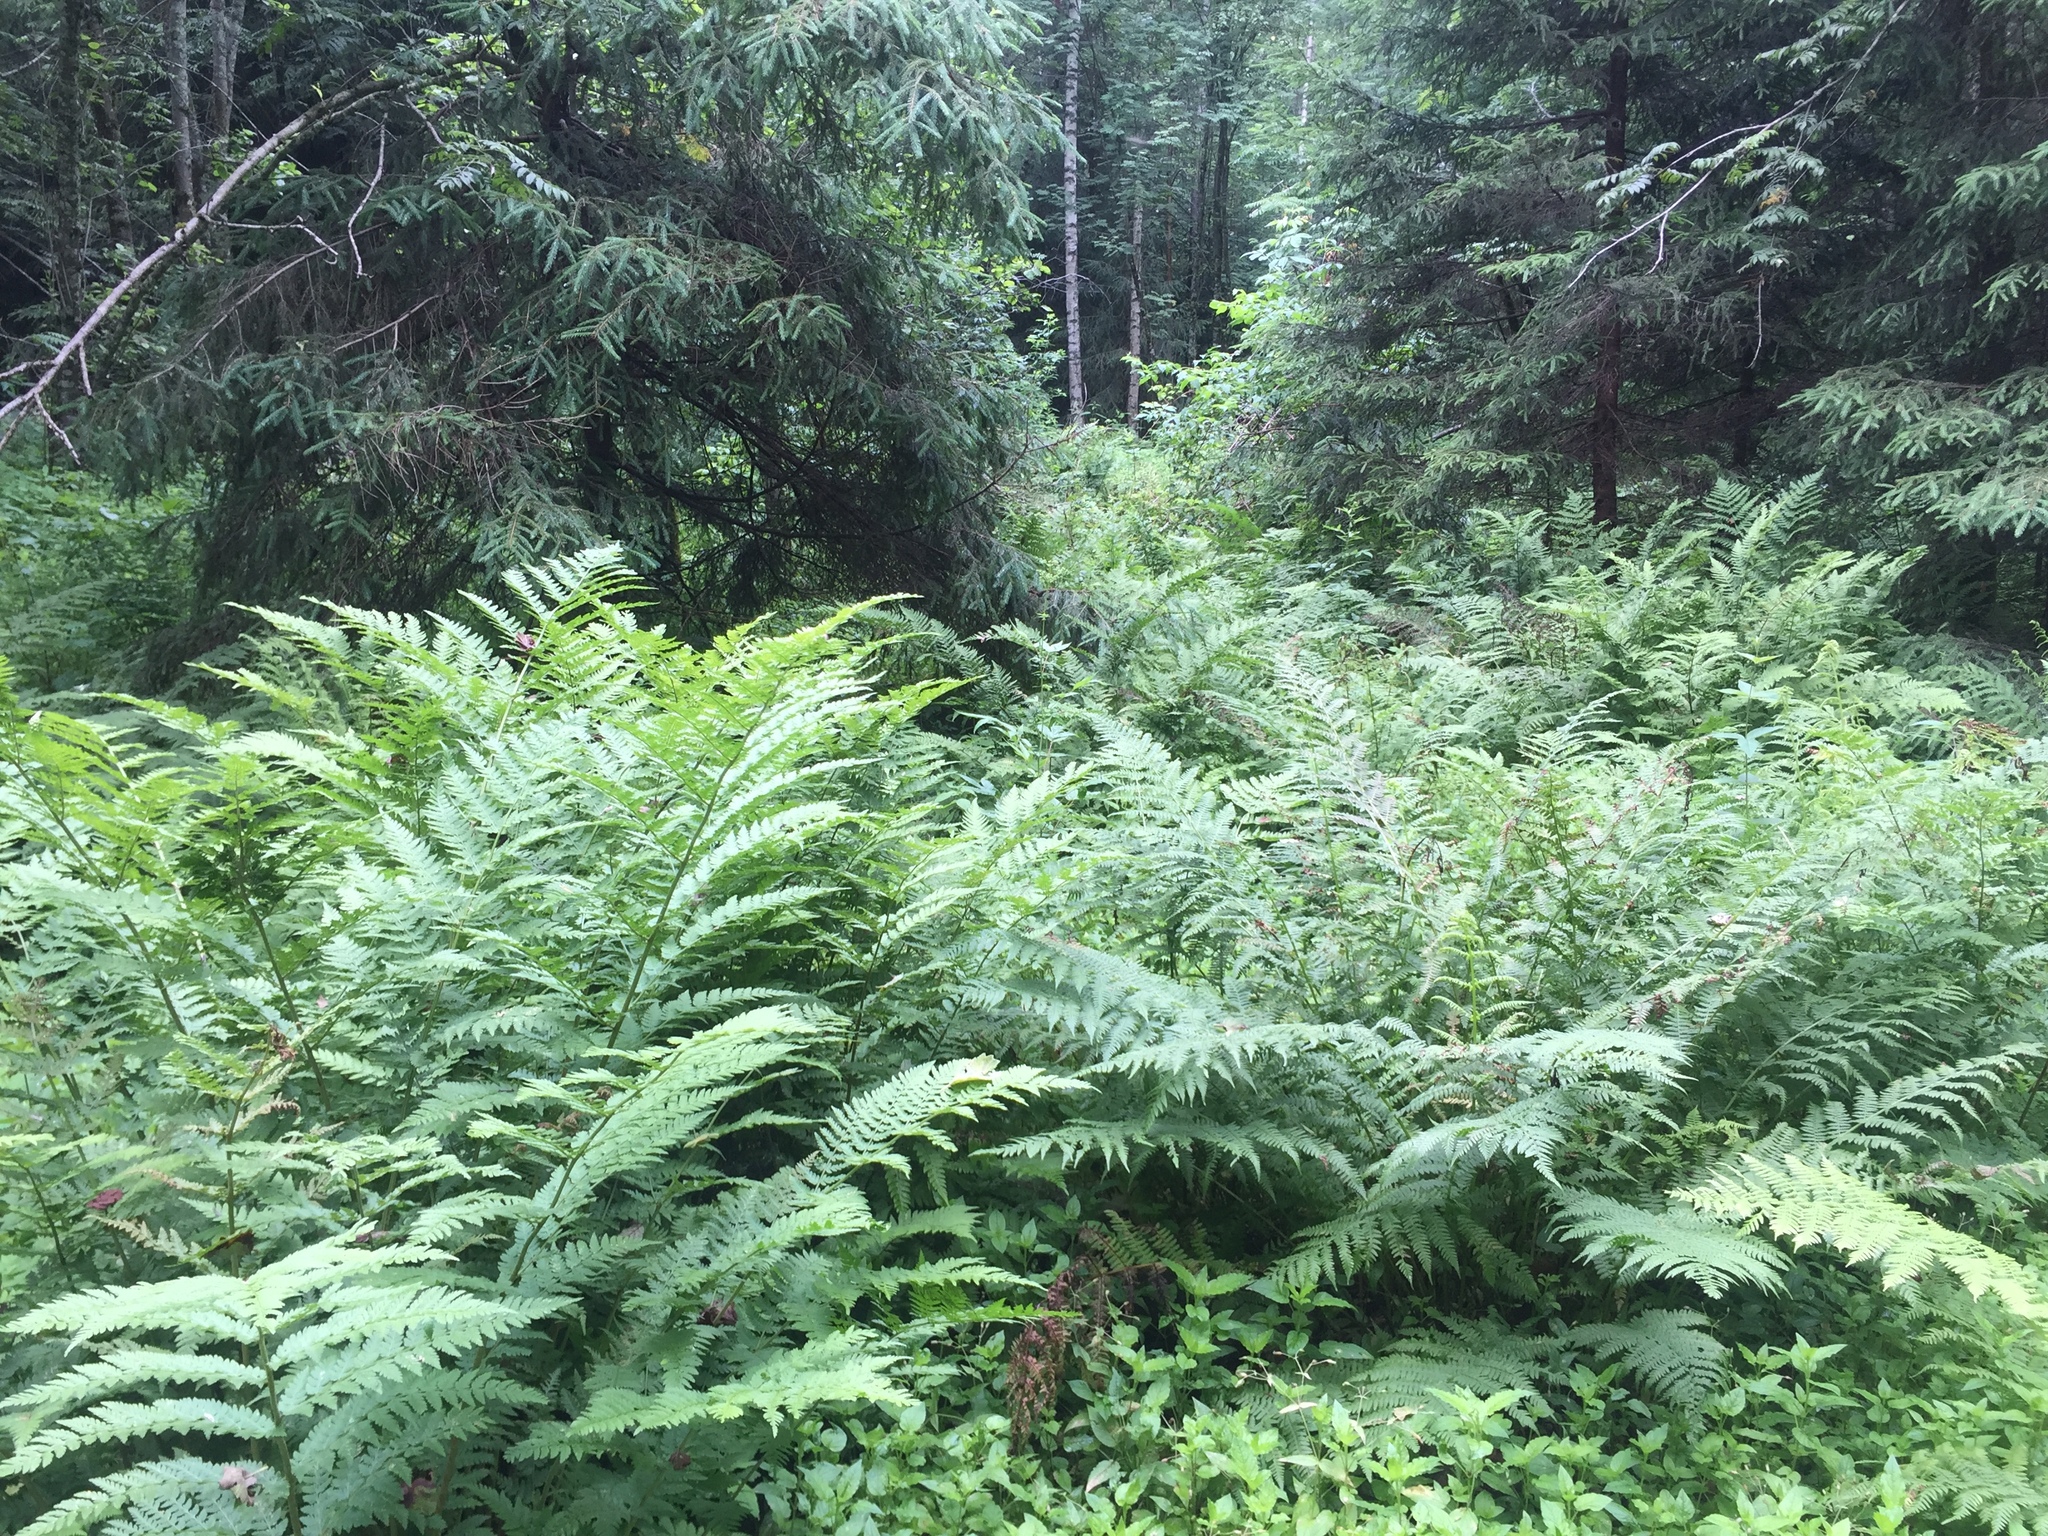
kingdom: Plantae
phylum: Tracheophyta
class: Polypodiopsida
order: Polypodiales
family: Athyriaceae
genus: Athyrium
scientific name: Athyrium filix-femina
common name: Lady fern
